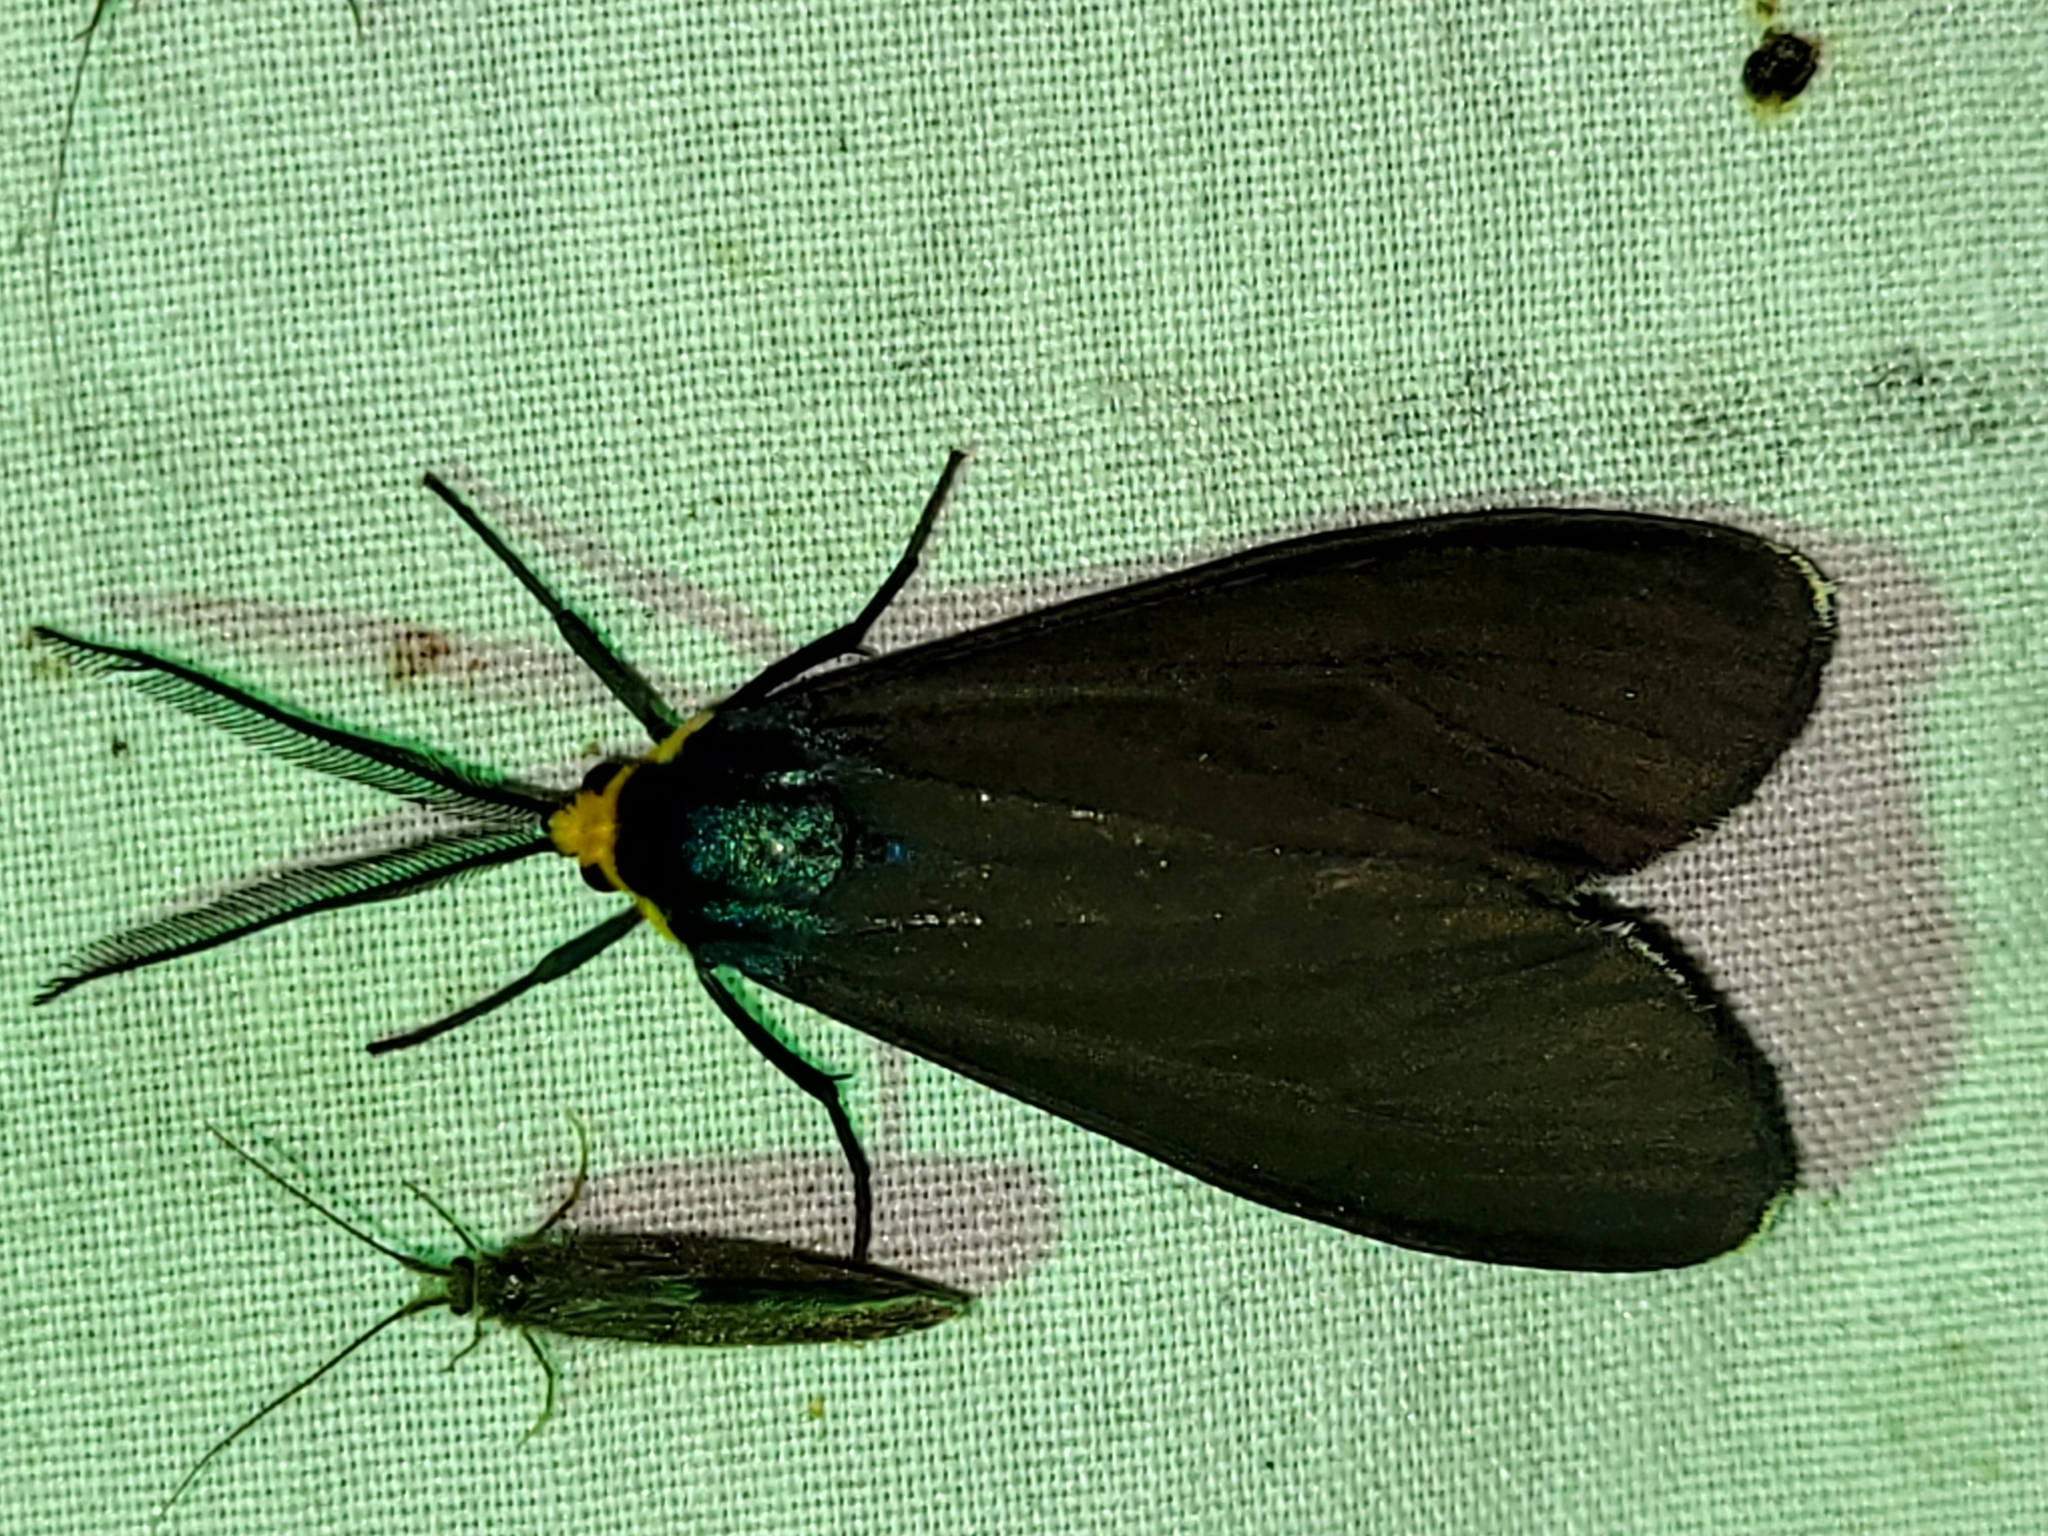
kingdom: Animalia
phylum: Arthropoda
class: Insecta
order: Lepidoptera
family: Erebidae
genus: Ctenucha
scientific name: Ctenucha virginica
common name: Virginia ctenucha moth
